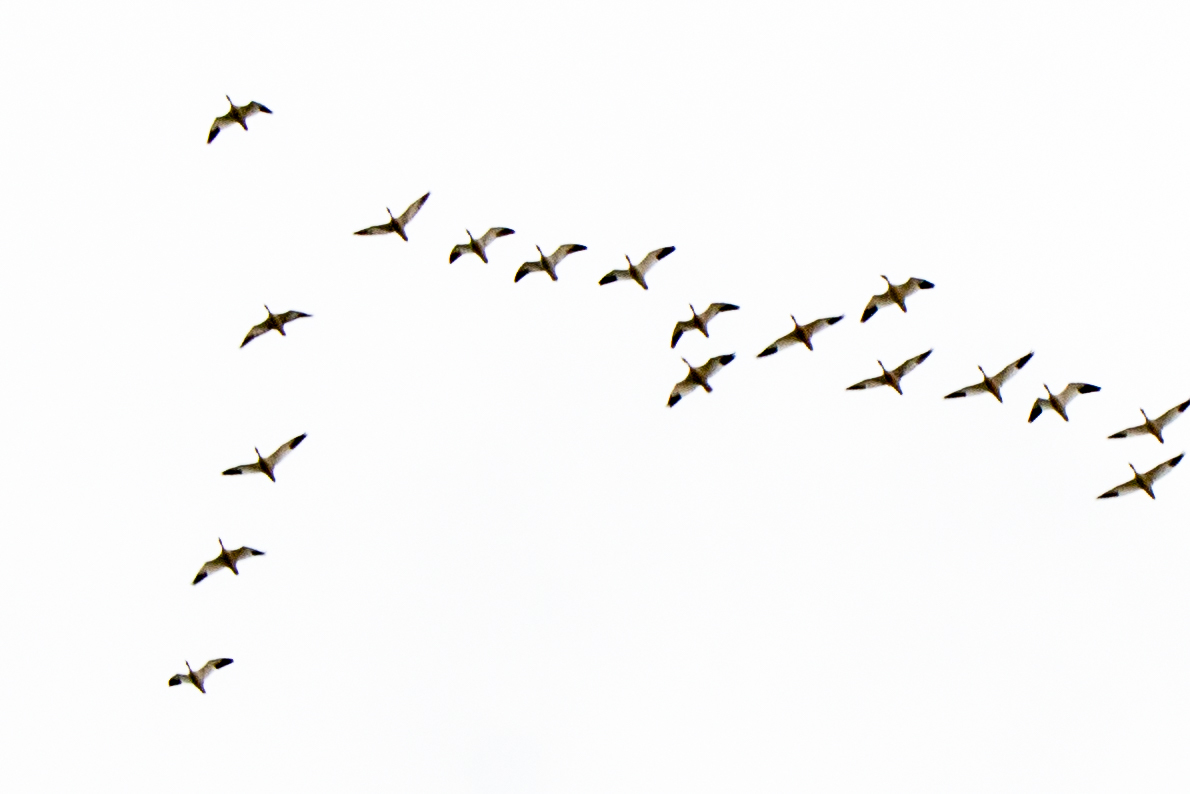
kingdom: Animalia
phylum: Chordata
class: Aves
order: Anseriformes
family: Anatidae
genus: Anser
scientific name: Anser caerulescens
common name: Snow goose
